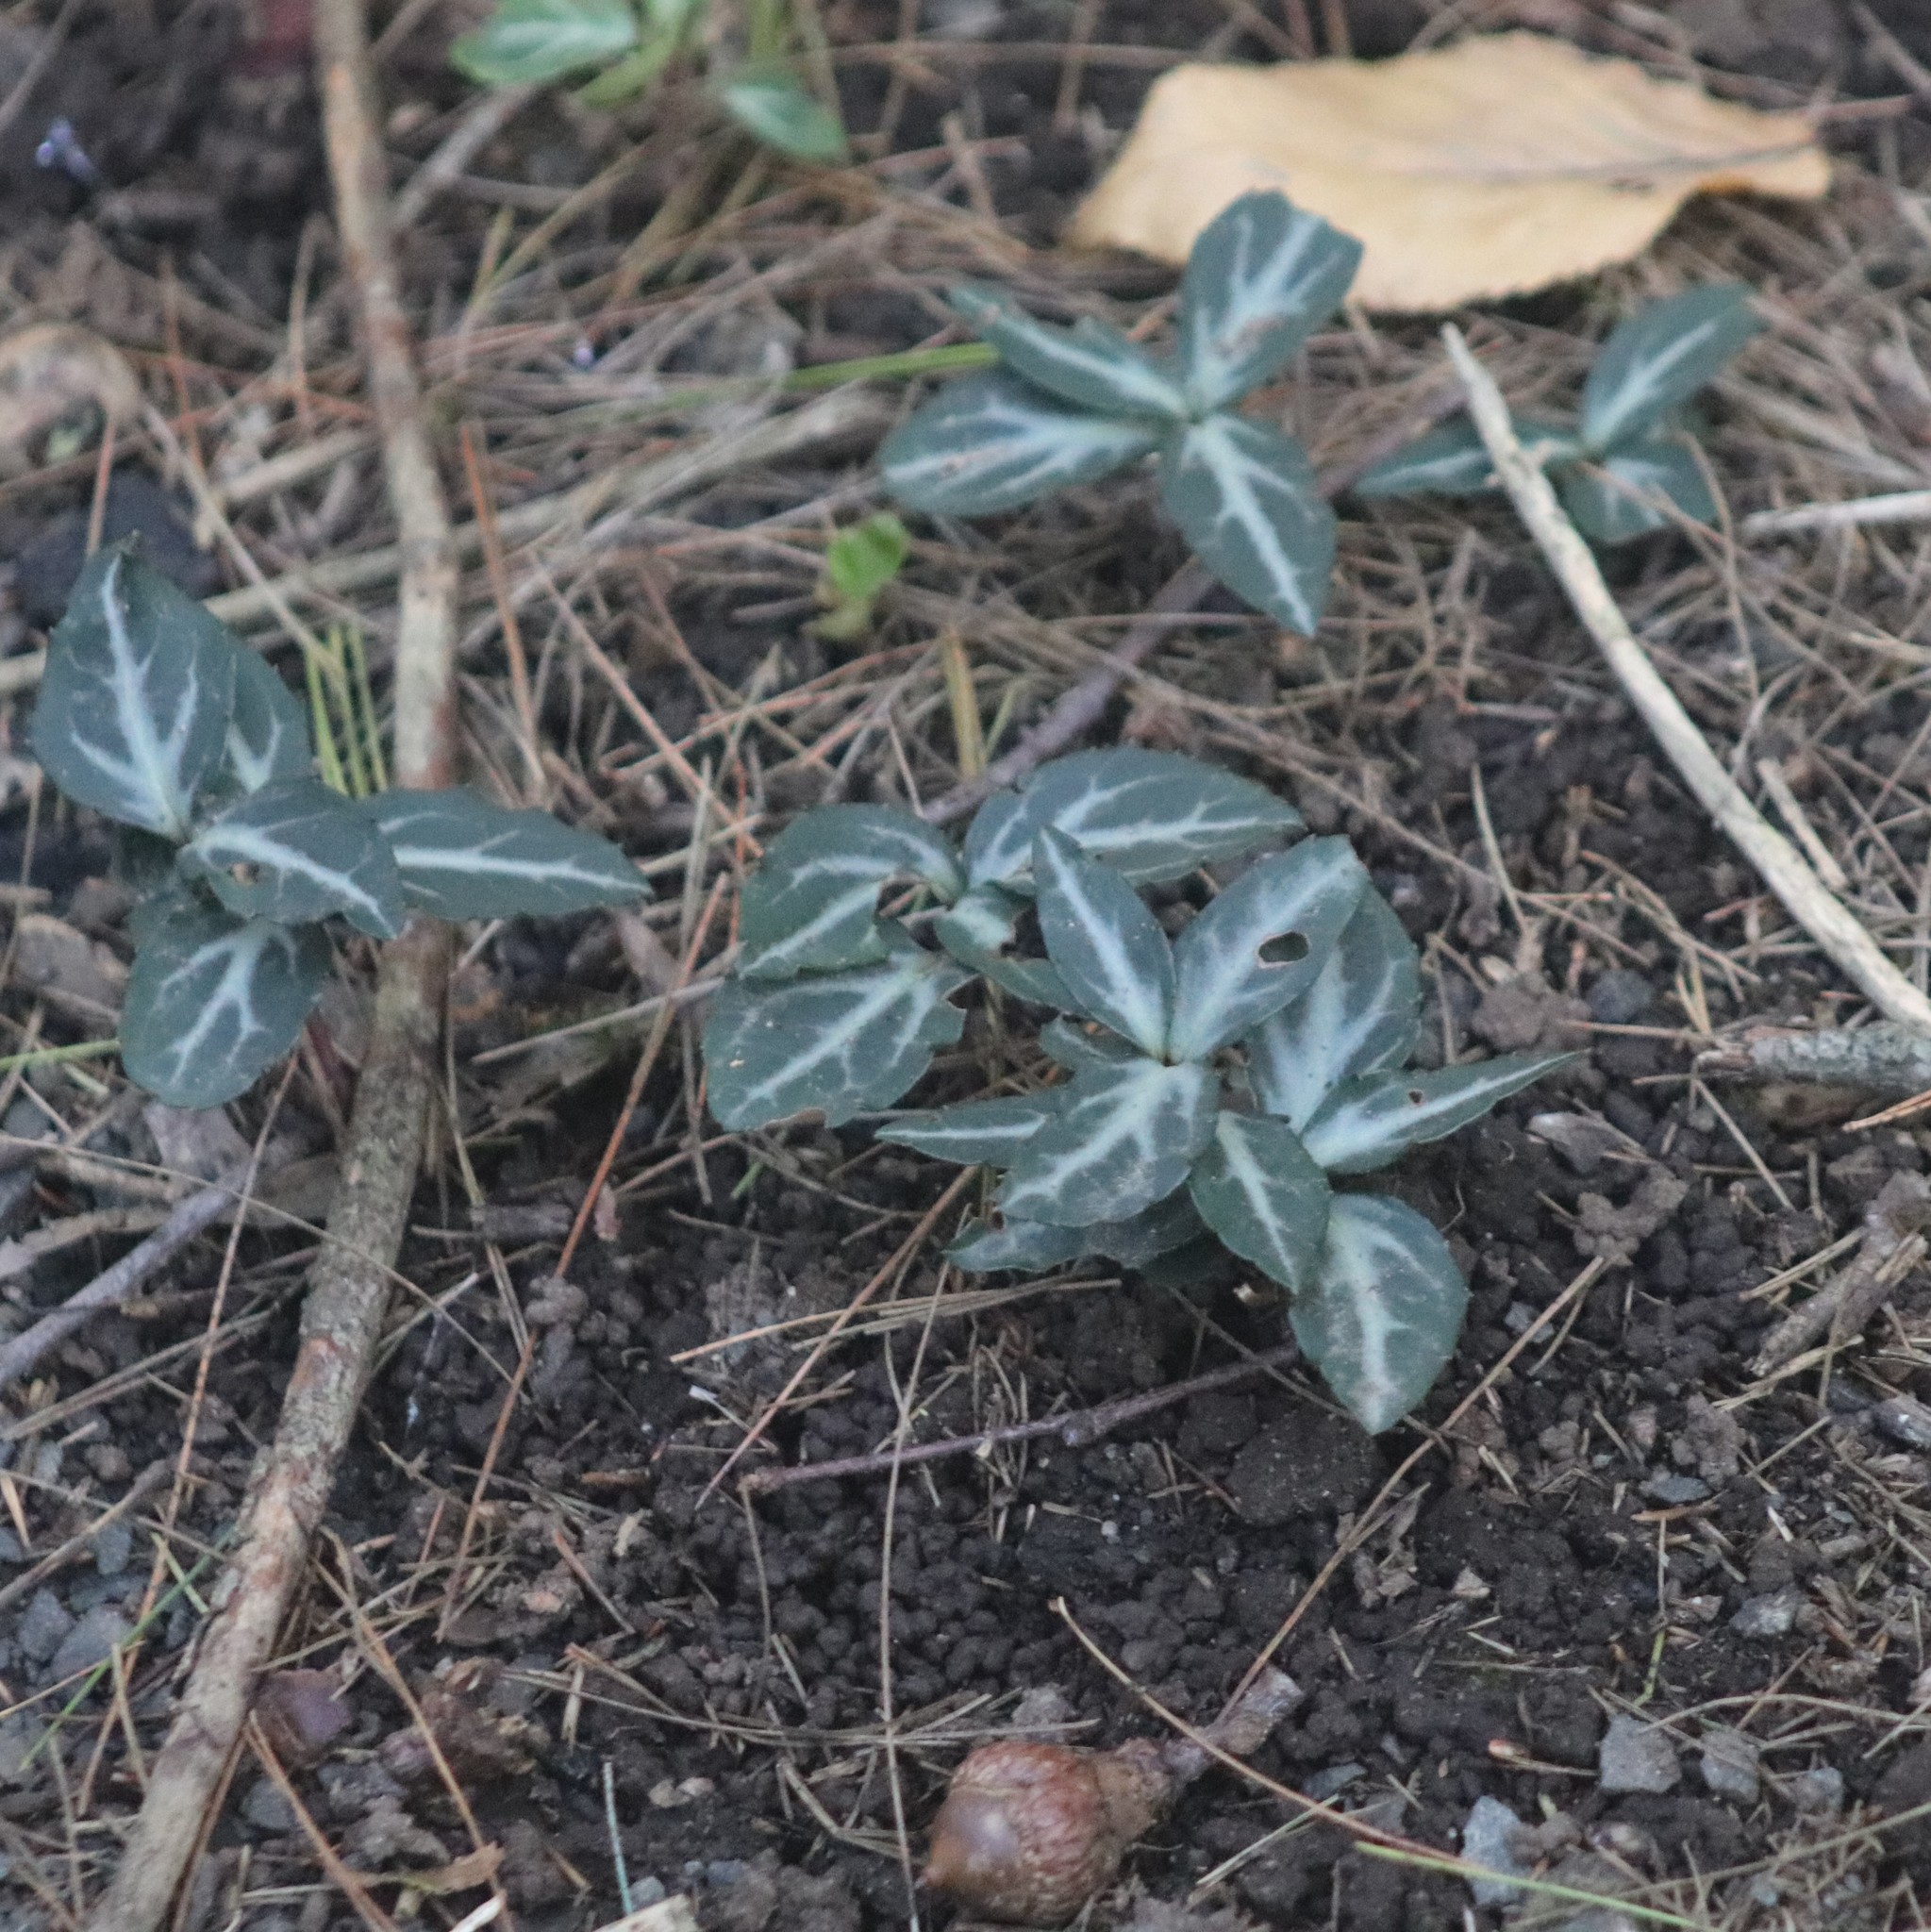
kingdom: Plantae
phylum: Tracheophyta
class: Magnoliopsida
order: Ericales
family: Ericaceae
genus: Chimaphila
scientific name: Chimaphila maculata
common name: Spotted pipsissewa
